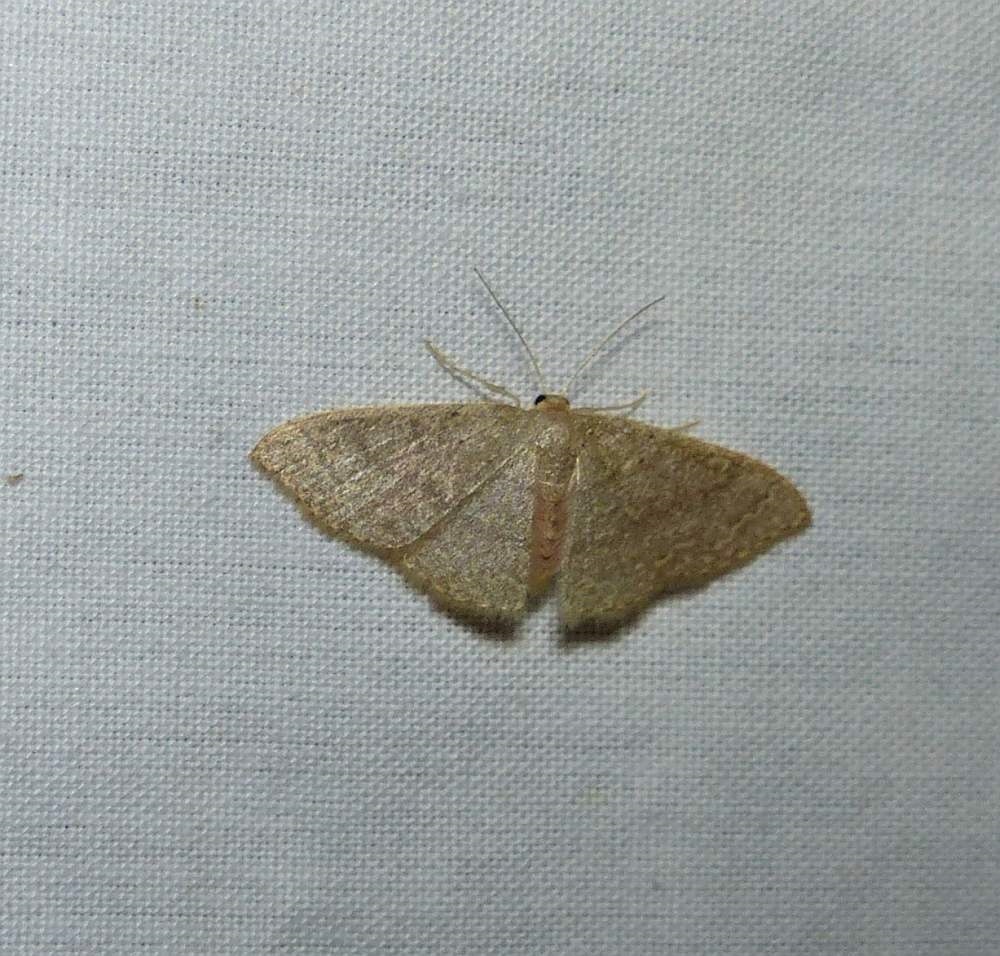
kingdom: Animalia
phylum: Arthropoda
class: Insecta
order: Lepidoptera
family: Geometridae
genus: Pleuroprucha
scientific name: Pleuroprucha insulsaria
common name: Common tan wave
